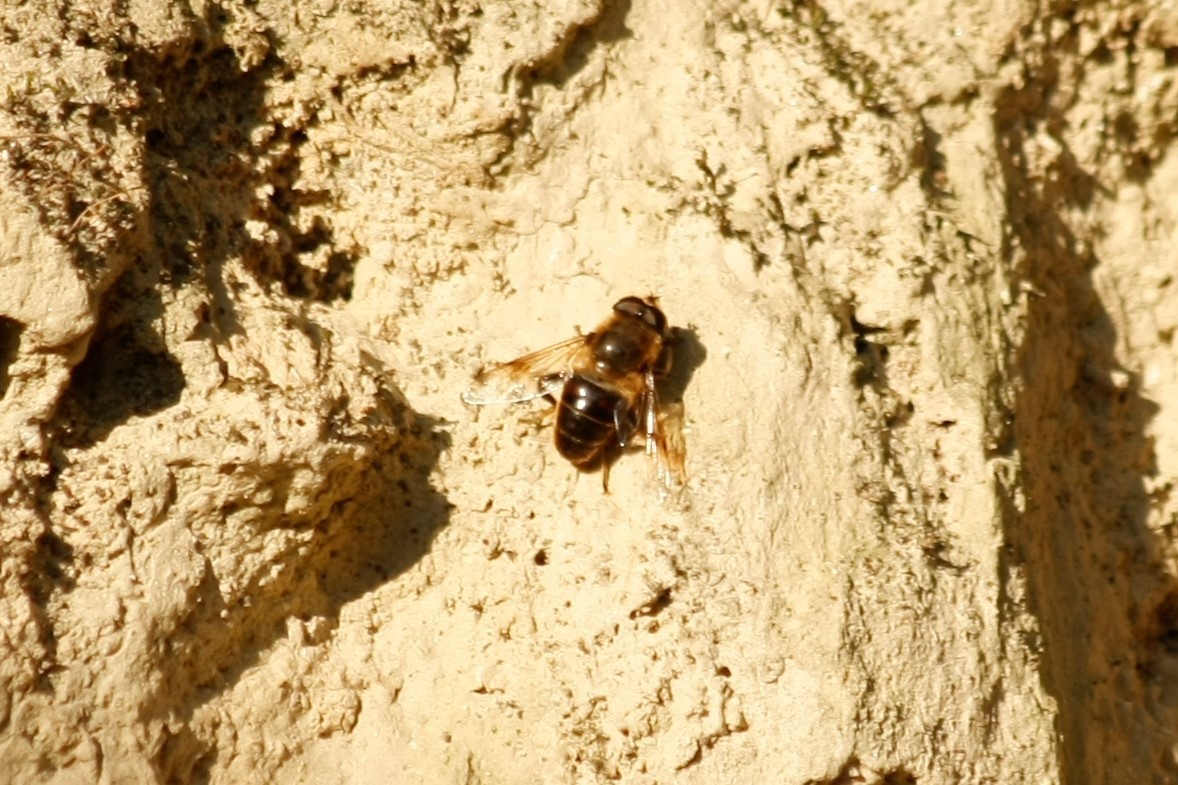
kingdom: Animalia
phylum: Arthropoda
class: Insecta
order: Diptera
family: Syrphidae
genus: Eristalis
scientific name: Eristalis tenax
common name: Drone fly
